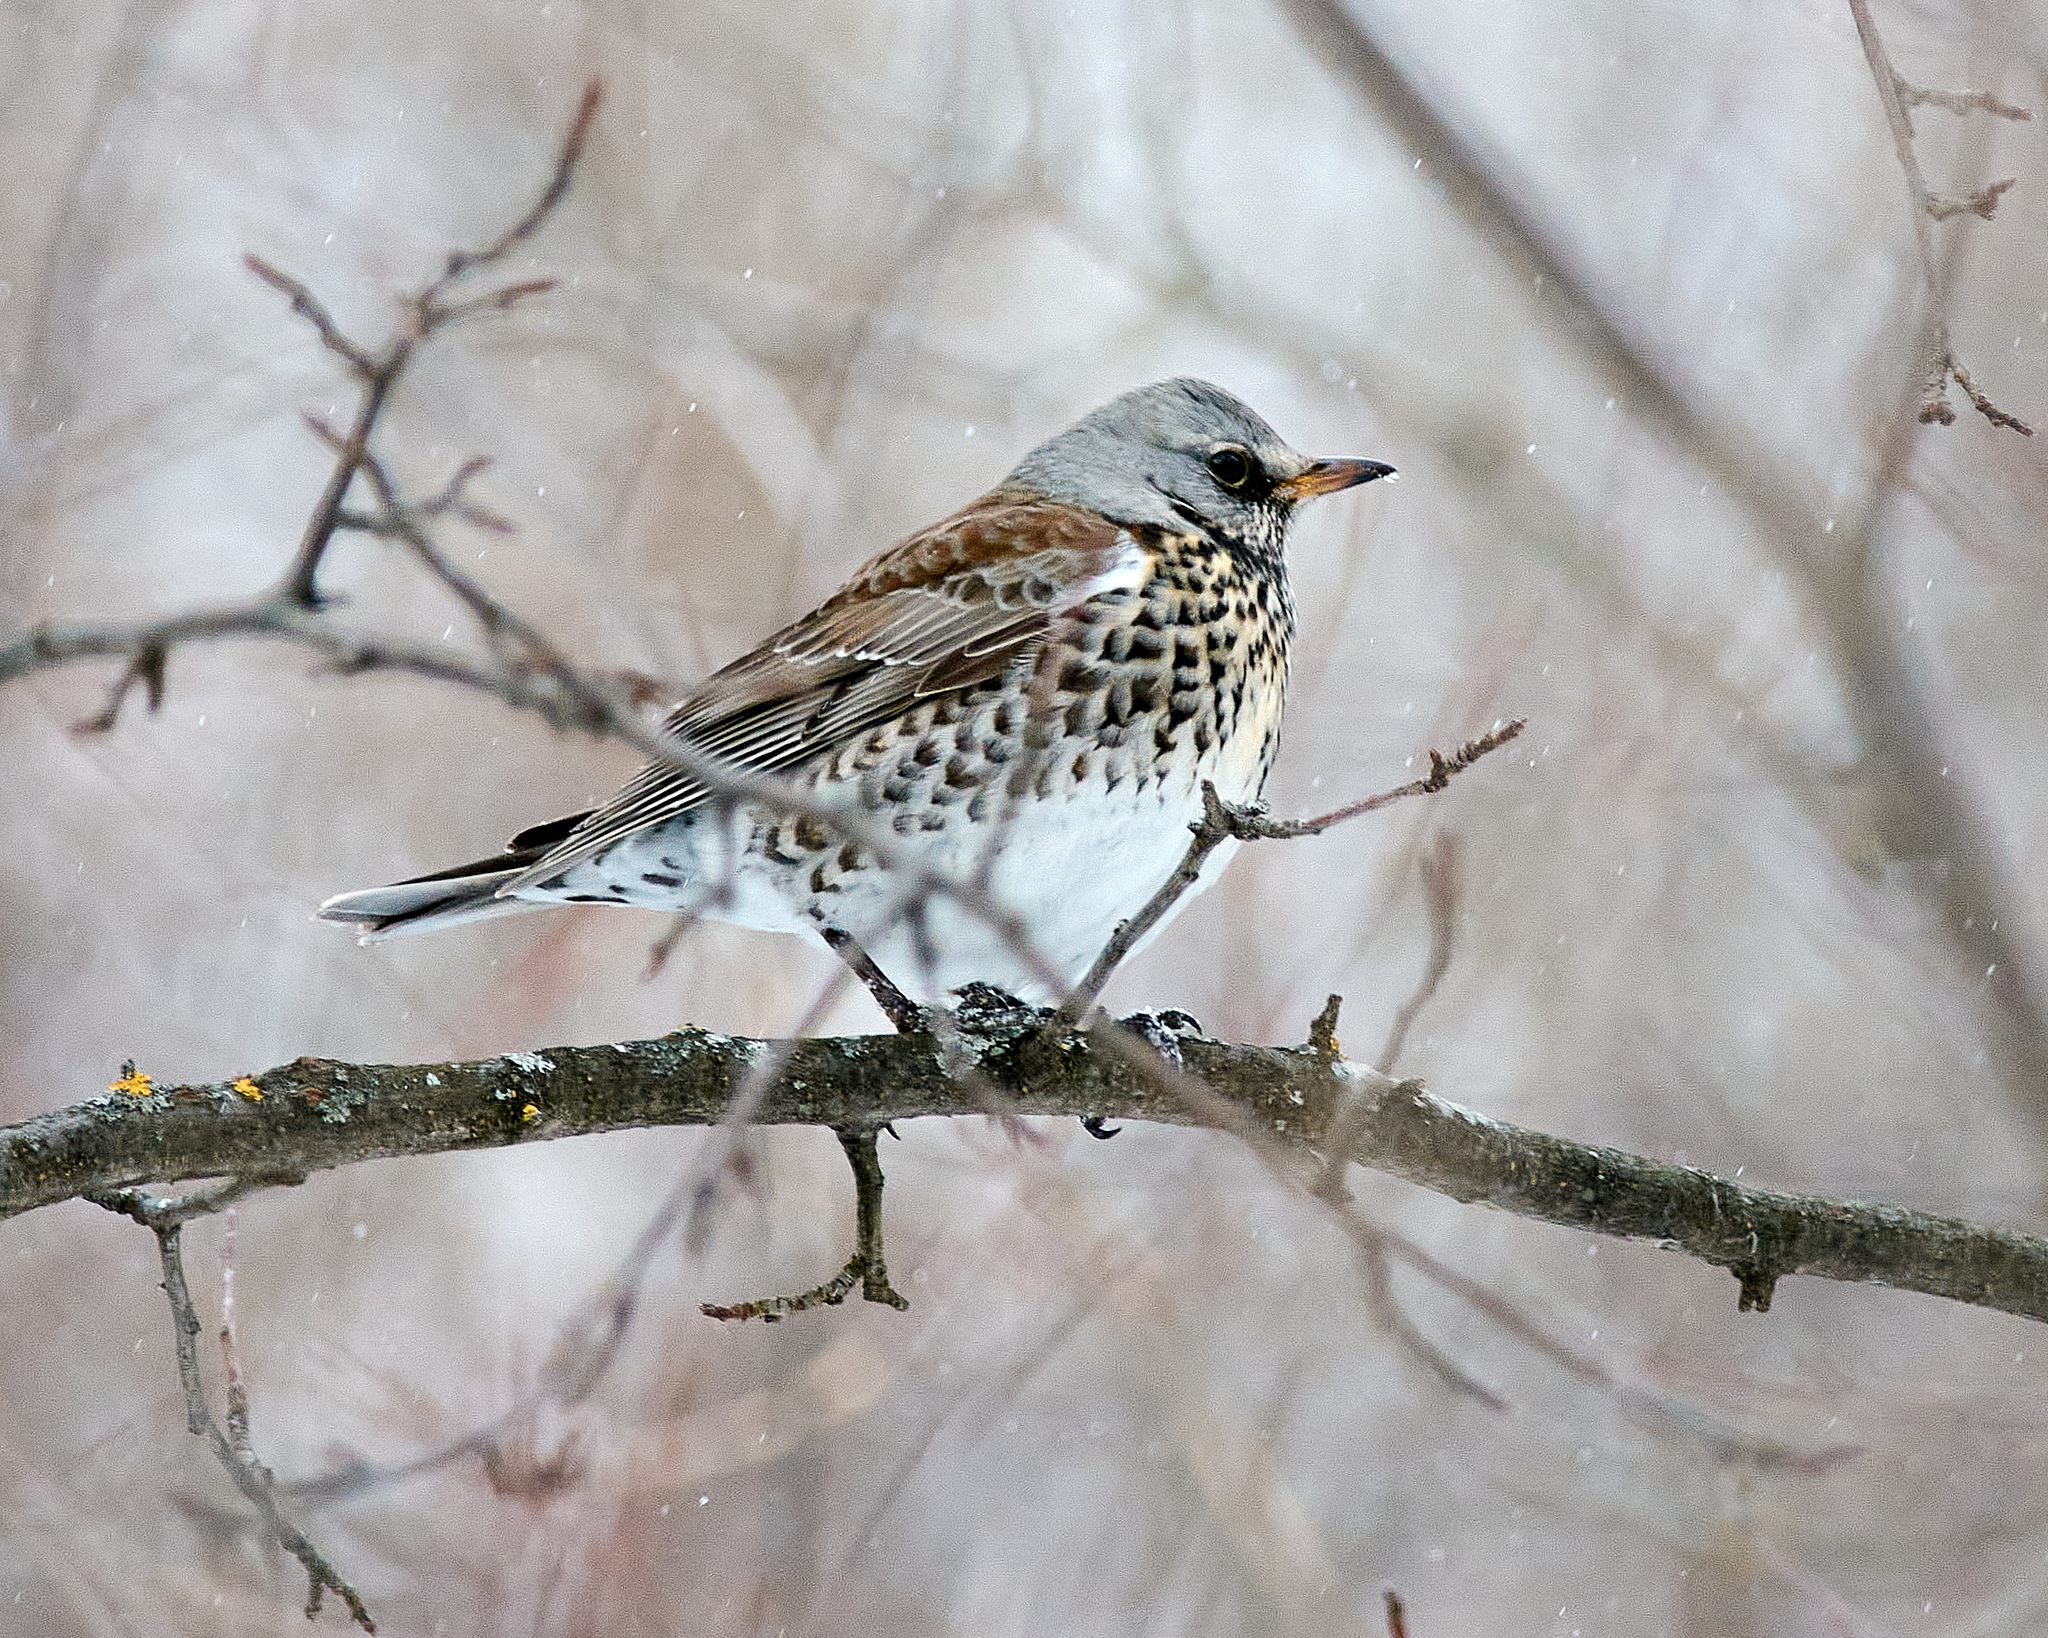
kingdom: Animalia
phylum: Chordata
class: Aves
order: Passeriformes
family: Turdidae
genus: Turdus
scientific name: Turdus pilaris
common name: Fieldfare
